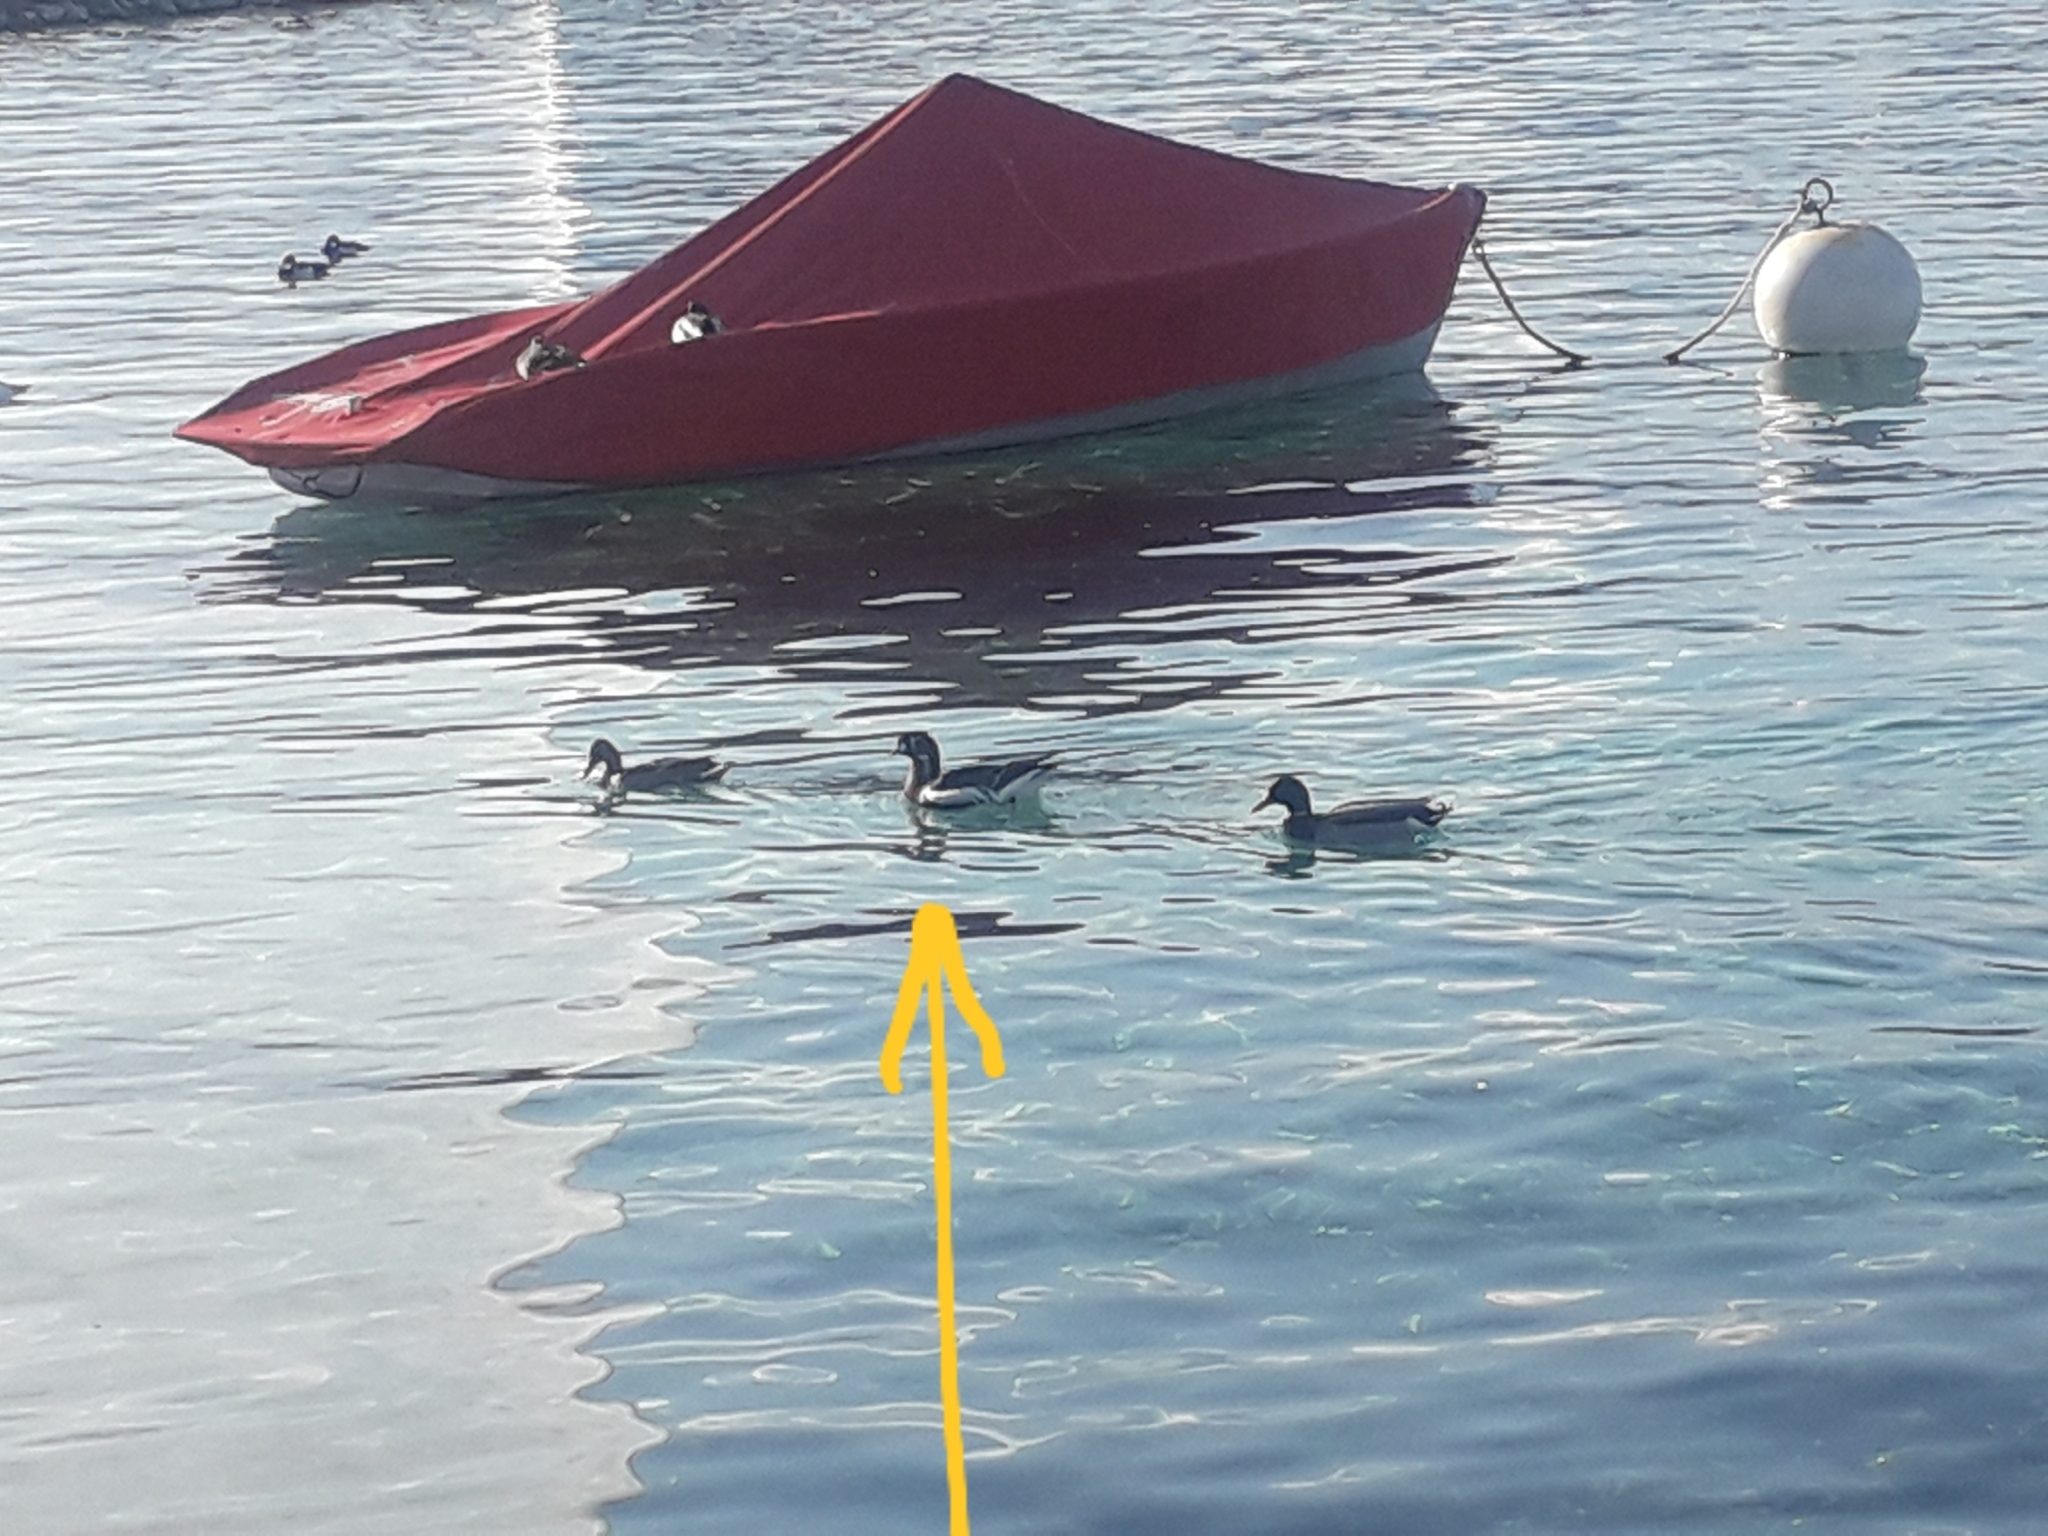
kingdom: Animalia
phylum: Chordata
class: Aves
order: Anseriformes
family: Anatidae
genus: Branta
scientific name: Branta ruficollis
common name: Red-breasted goose
